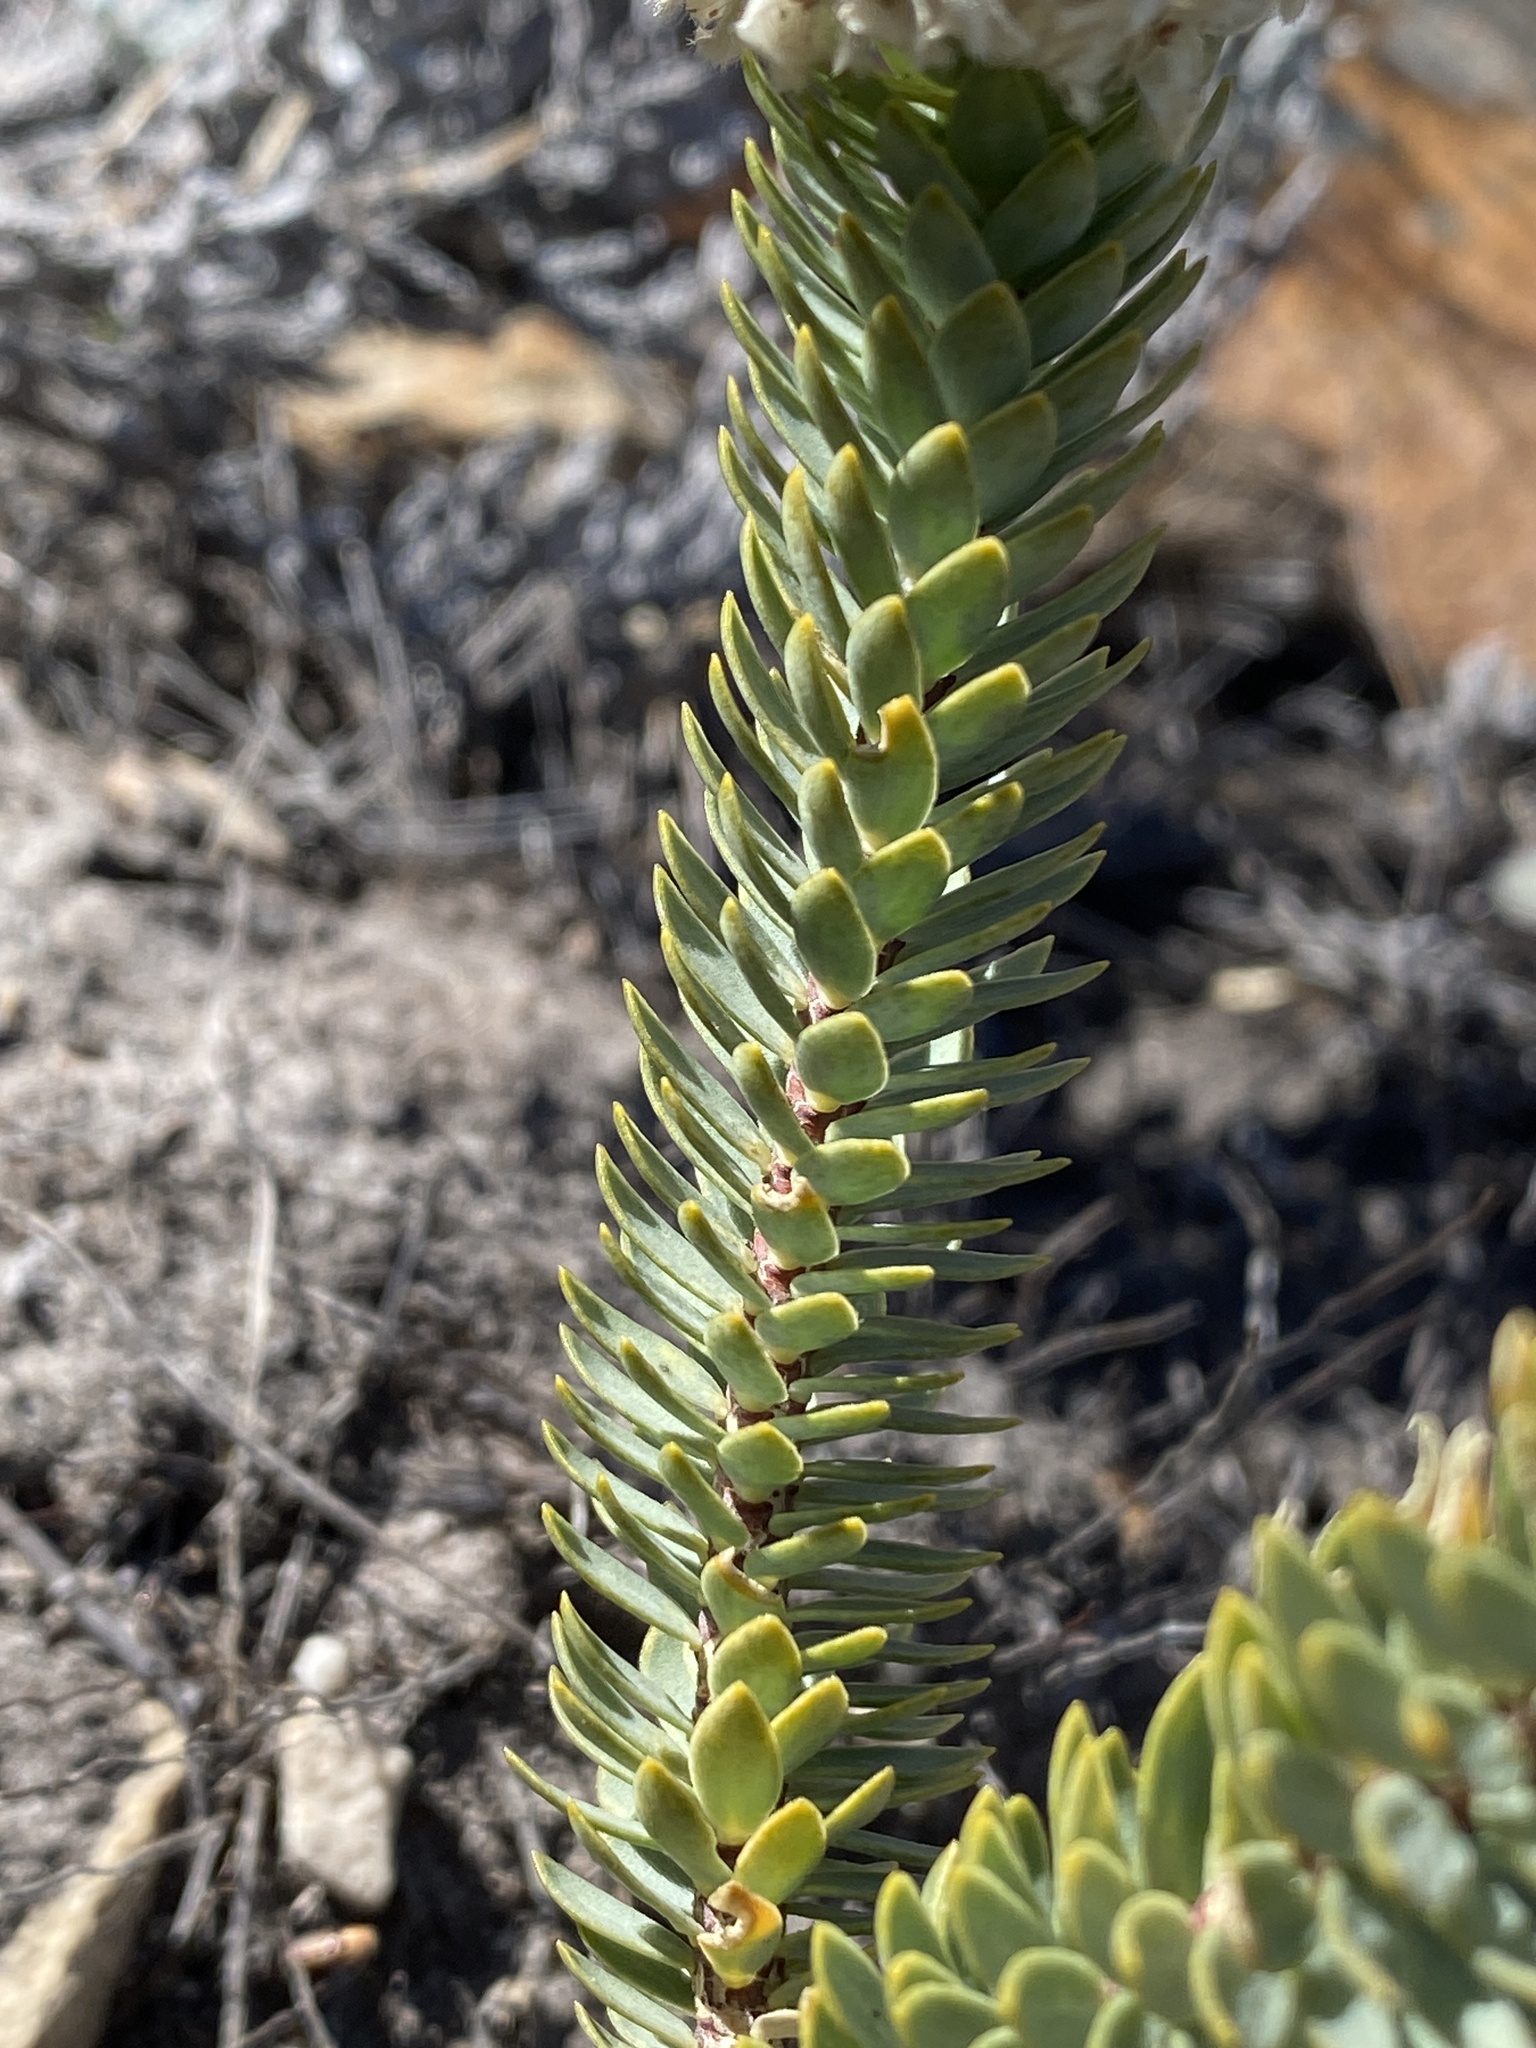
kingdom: Plantae
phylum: Tracheophyta
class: Magnoliopsida
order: Malvales
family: Thymelaeaceae
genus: Lachnaea
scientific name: Lachnaea pomposa
